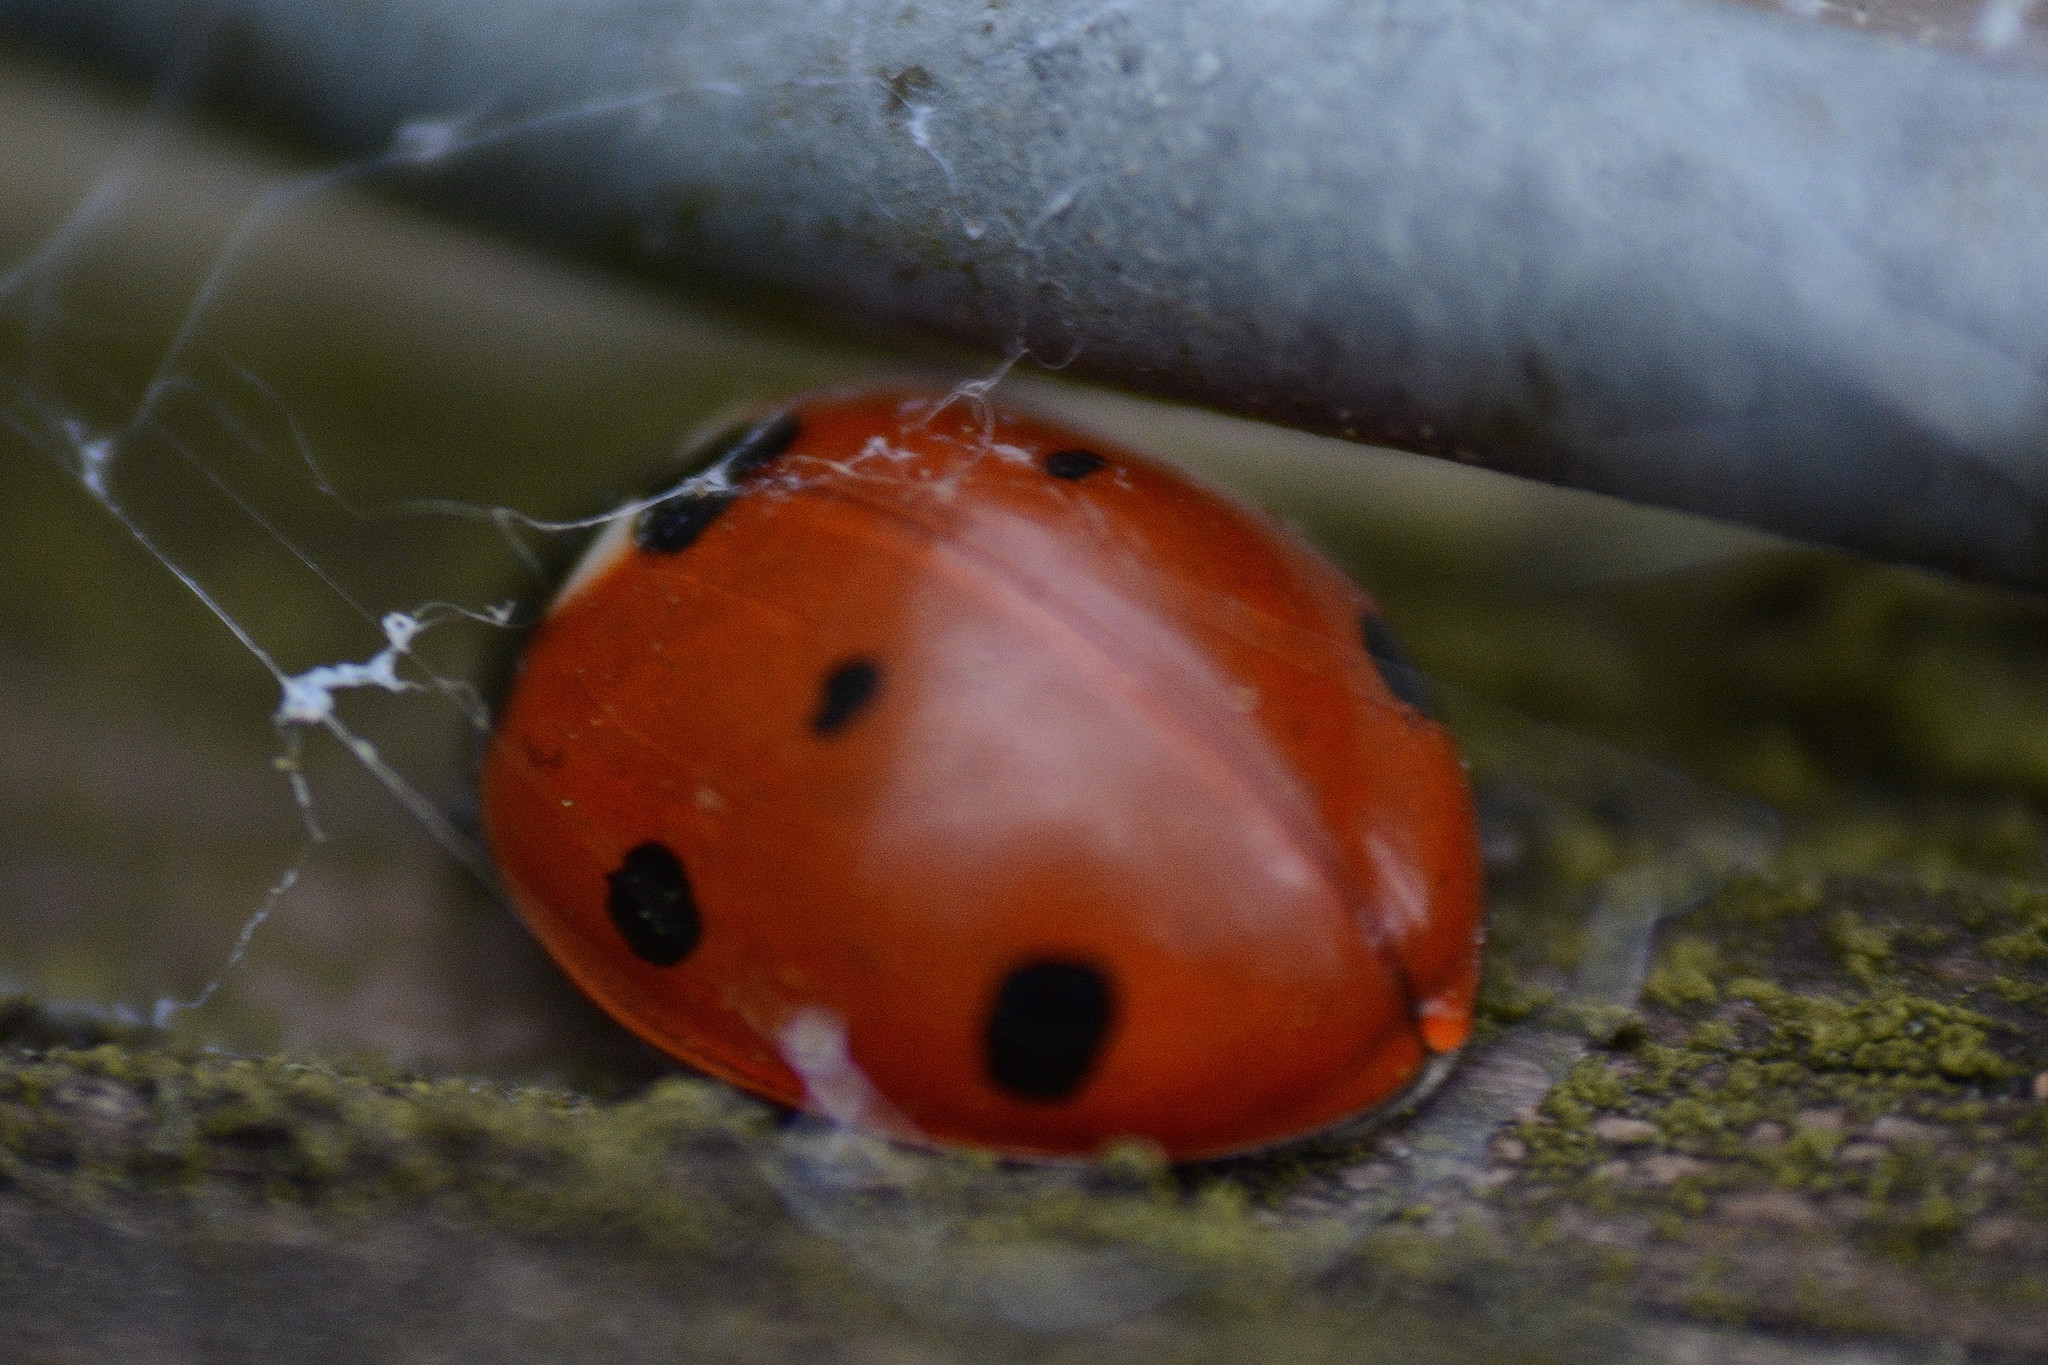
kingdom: Animalia
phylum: Arthropoda
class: Insecta
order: Coleoptera
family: Coccinellidae
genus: Coccinella
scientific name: Coccinella septempunctata
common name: Sevenspotted lady beetle
